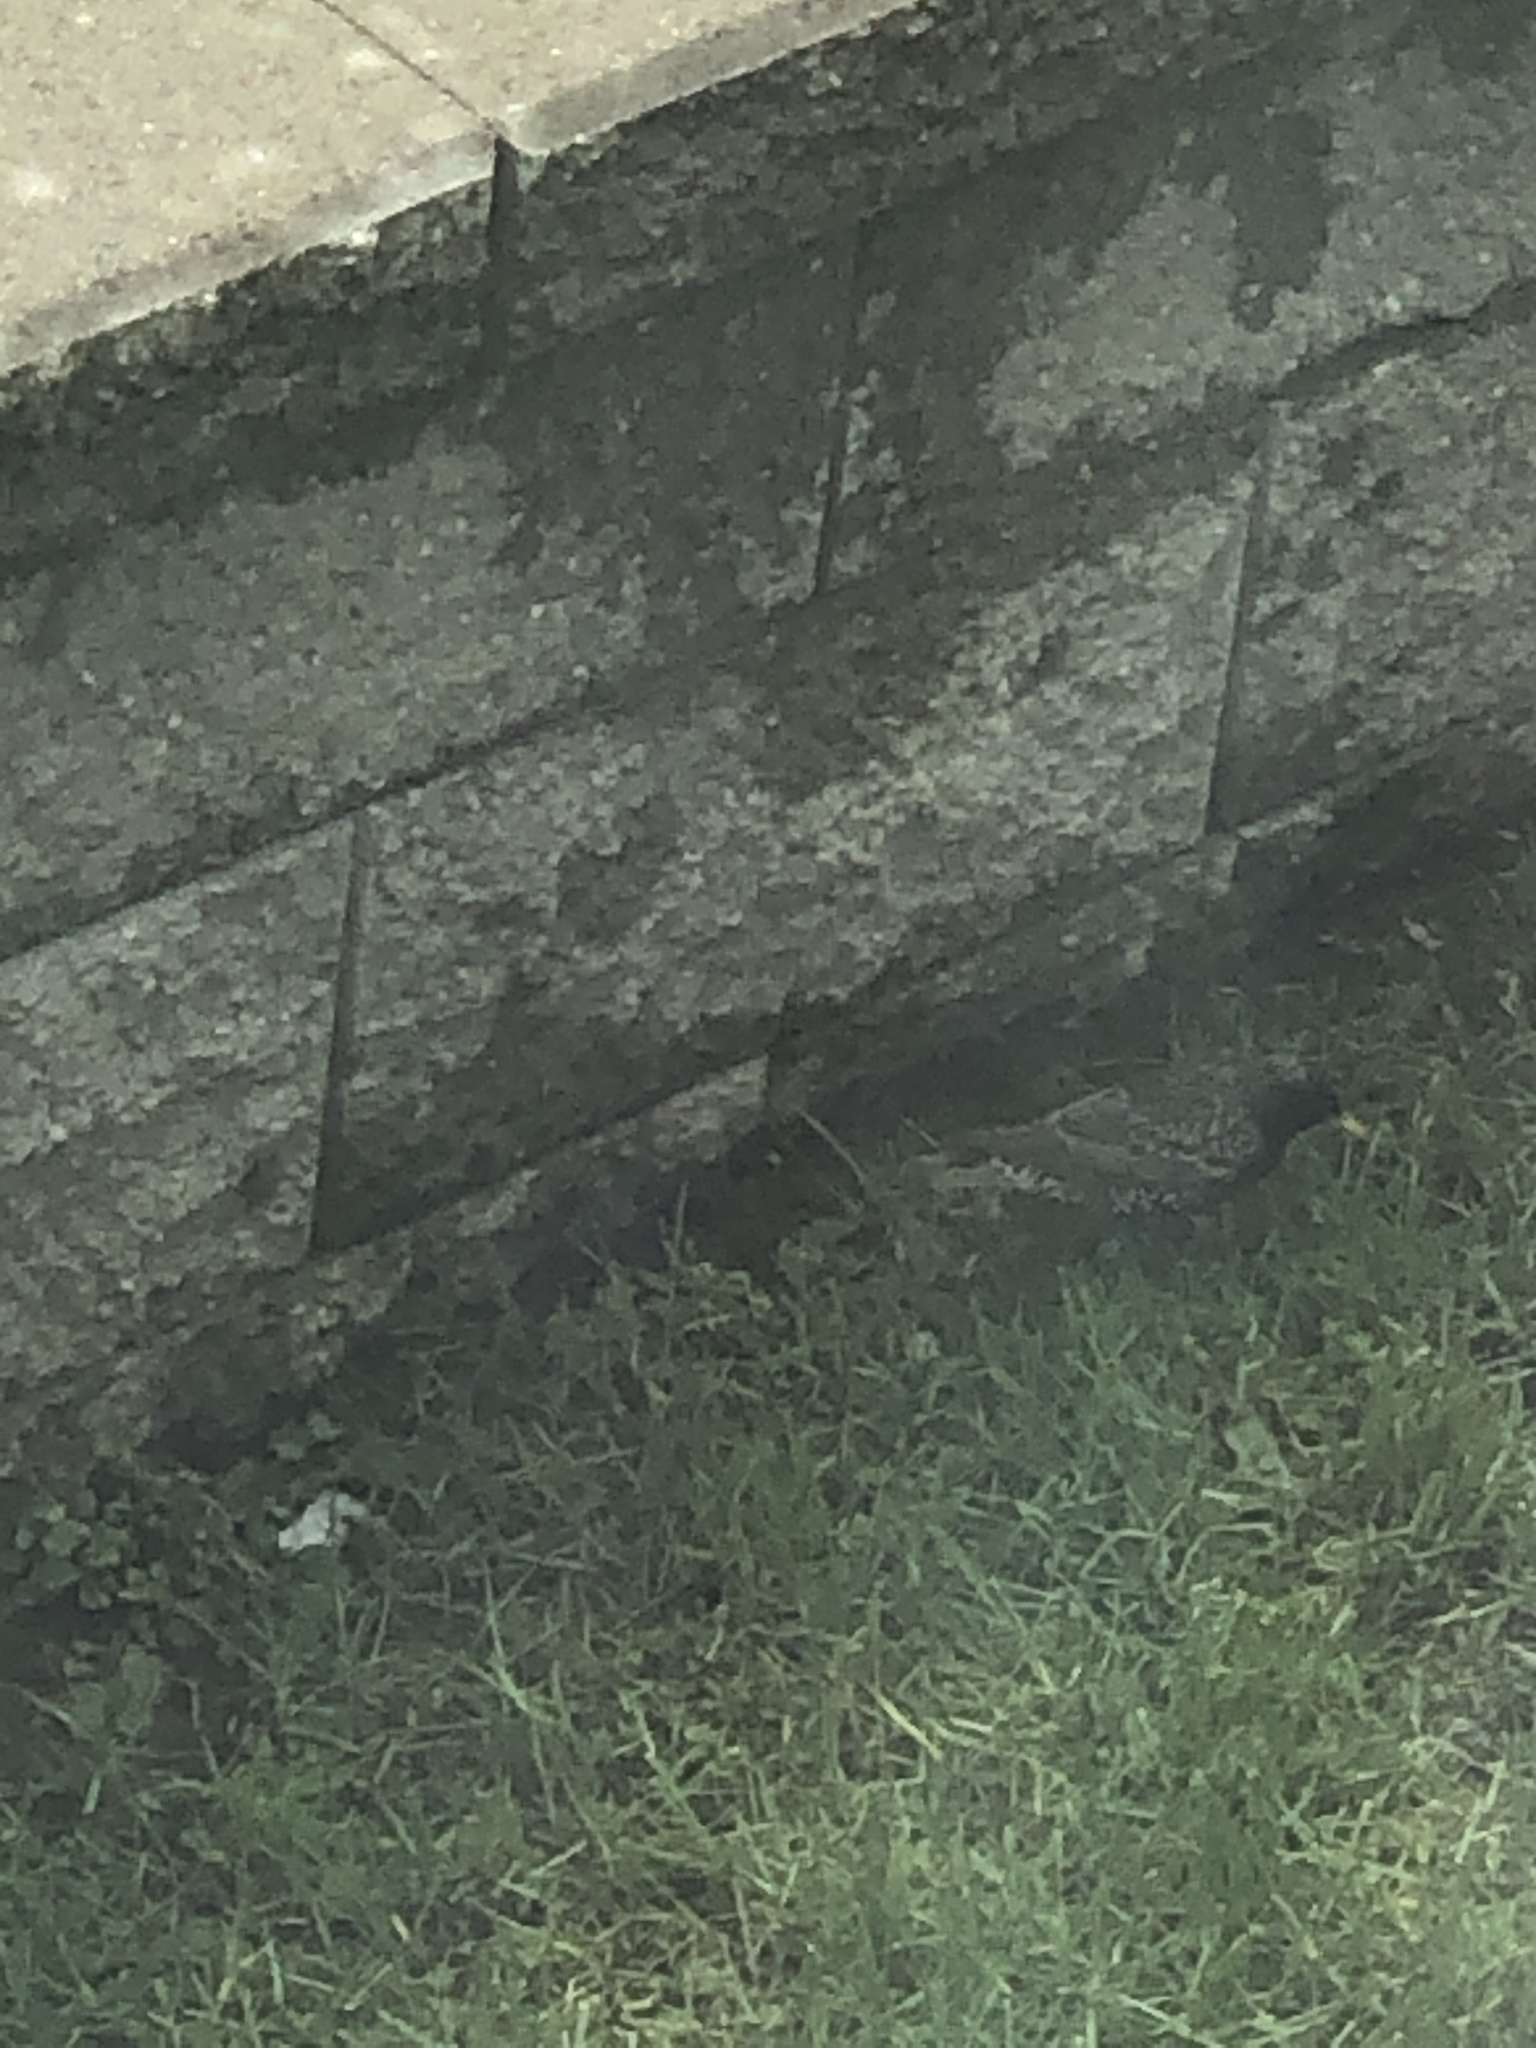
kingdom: Animalia
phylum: Chordata
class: Aves
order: Passeriformes
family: Sturnidae
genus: Sturnus
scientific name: Sturnus vulgaris
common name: Common starling
